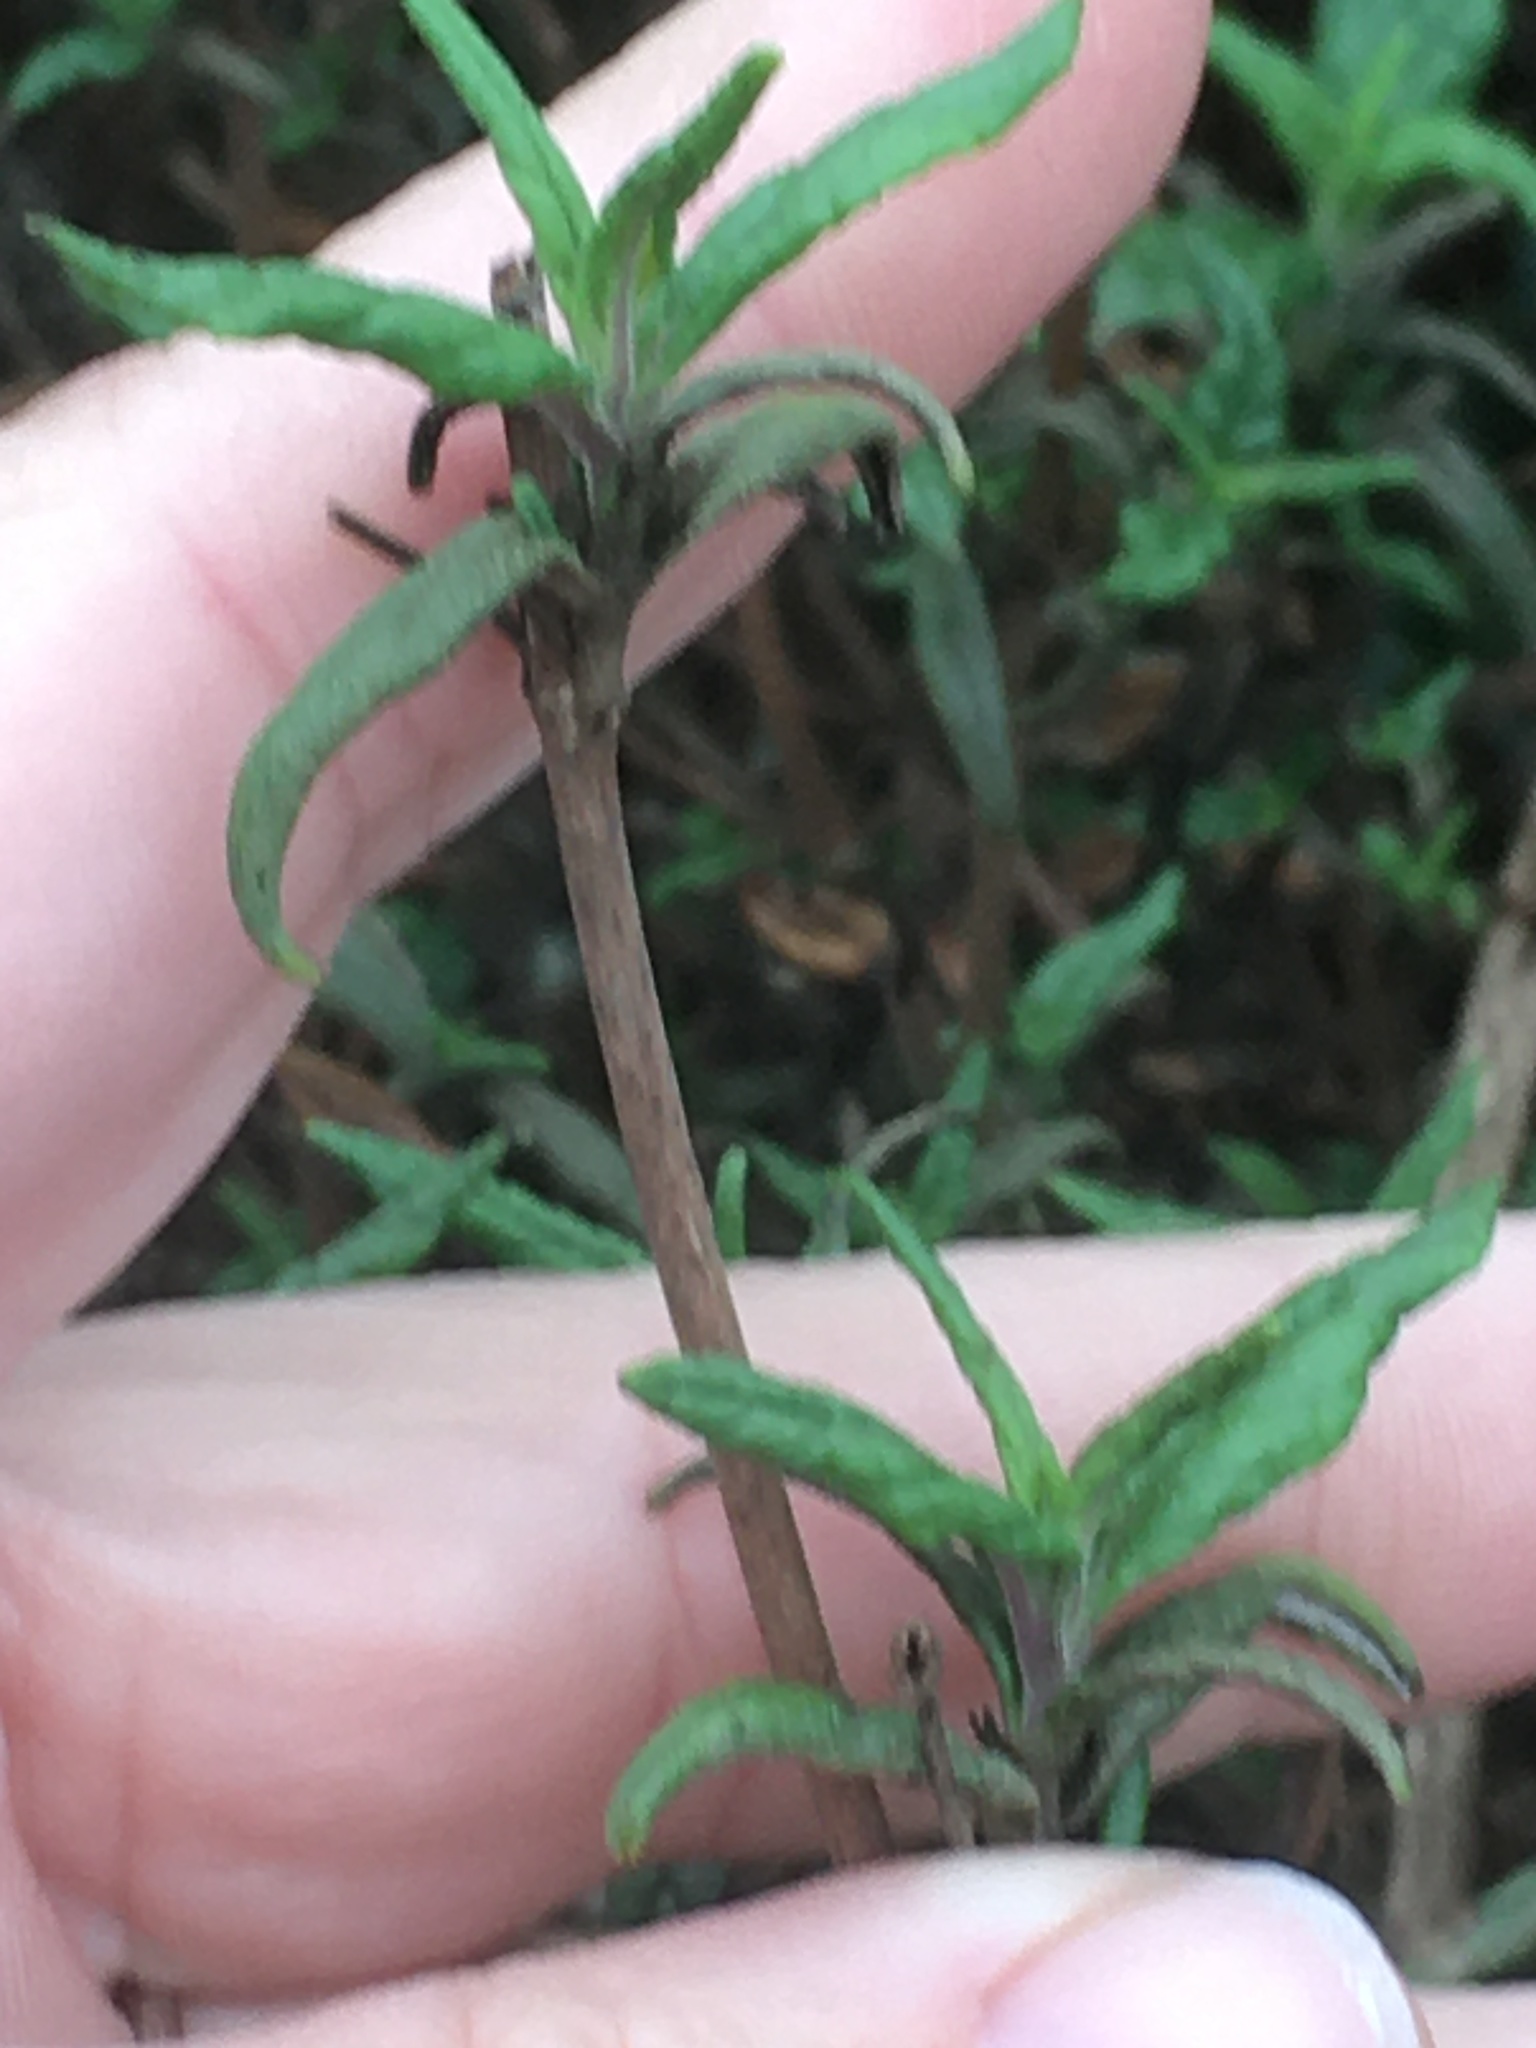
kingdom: Plantae
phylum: Tracheophyta
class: Magnoliopsida
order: Lamiales
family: Phrymaceae
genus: Diplacus
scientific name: Diplacus aurantiacus
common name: Bush monkey-flower
